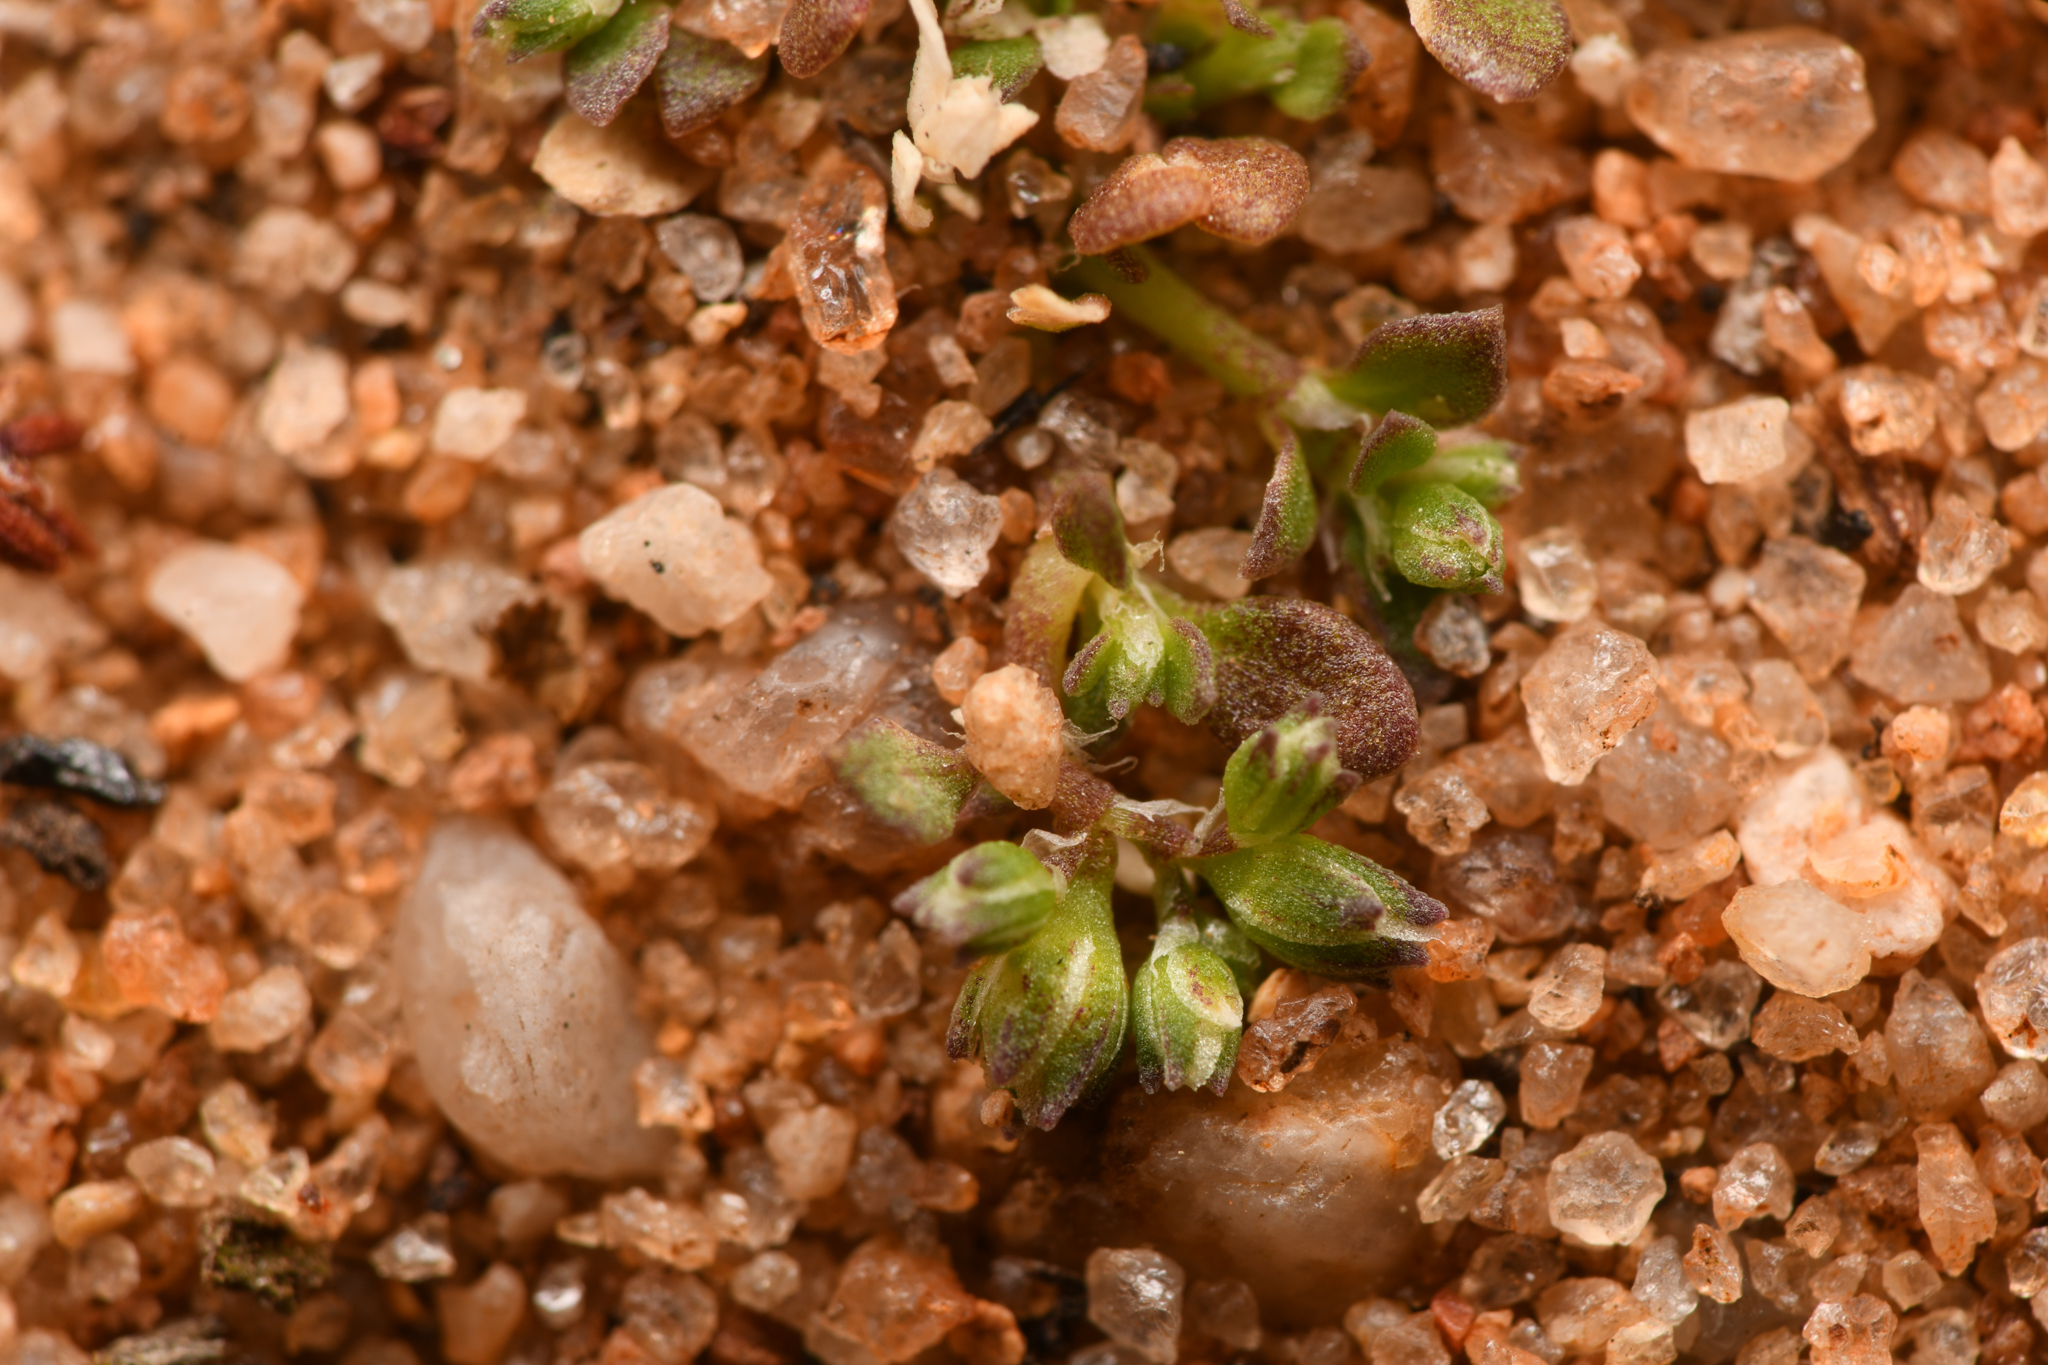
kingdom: Plantae
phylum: Tracheophyta
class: Magnoliopsida
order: Caryophyllales
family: Caryophyllaceae
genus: Polycarpon
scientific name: Polycarpon depressum
